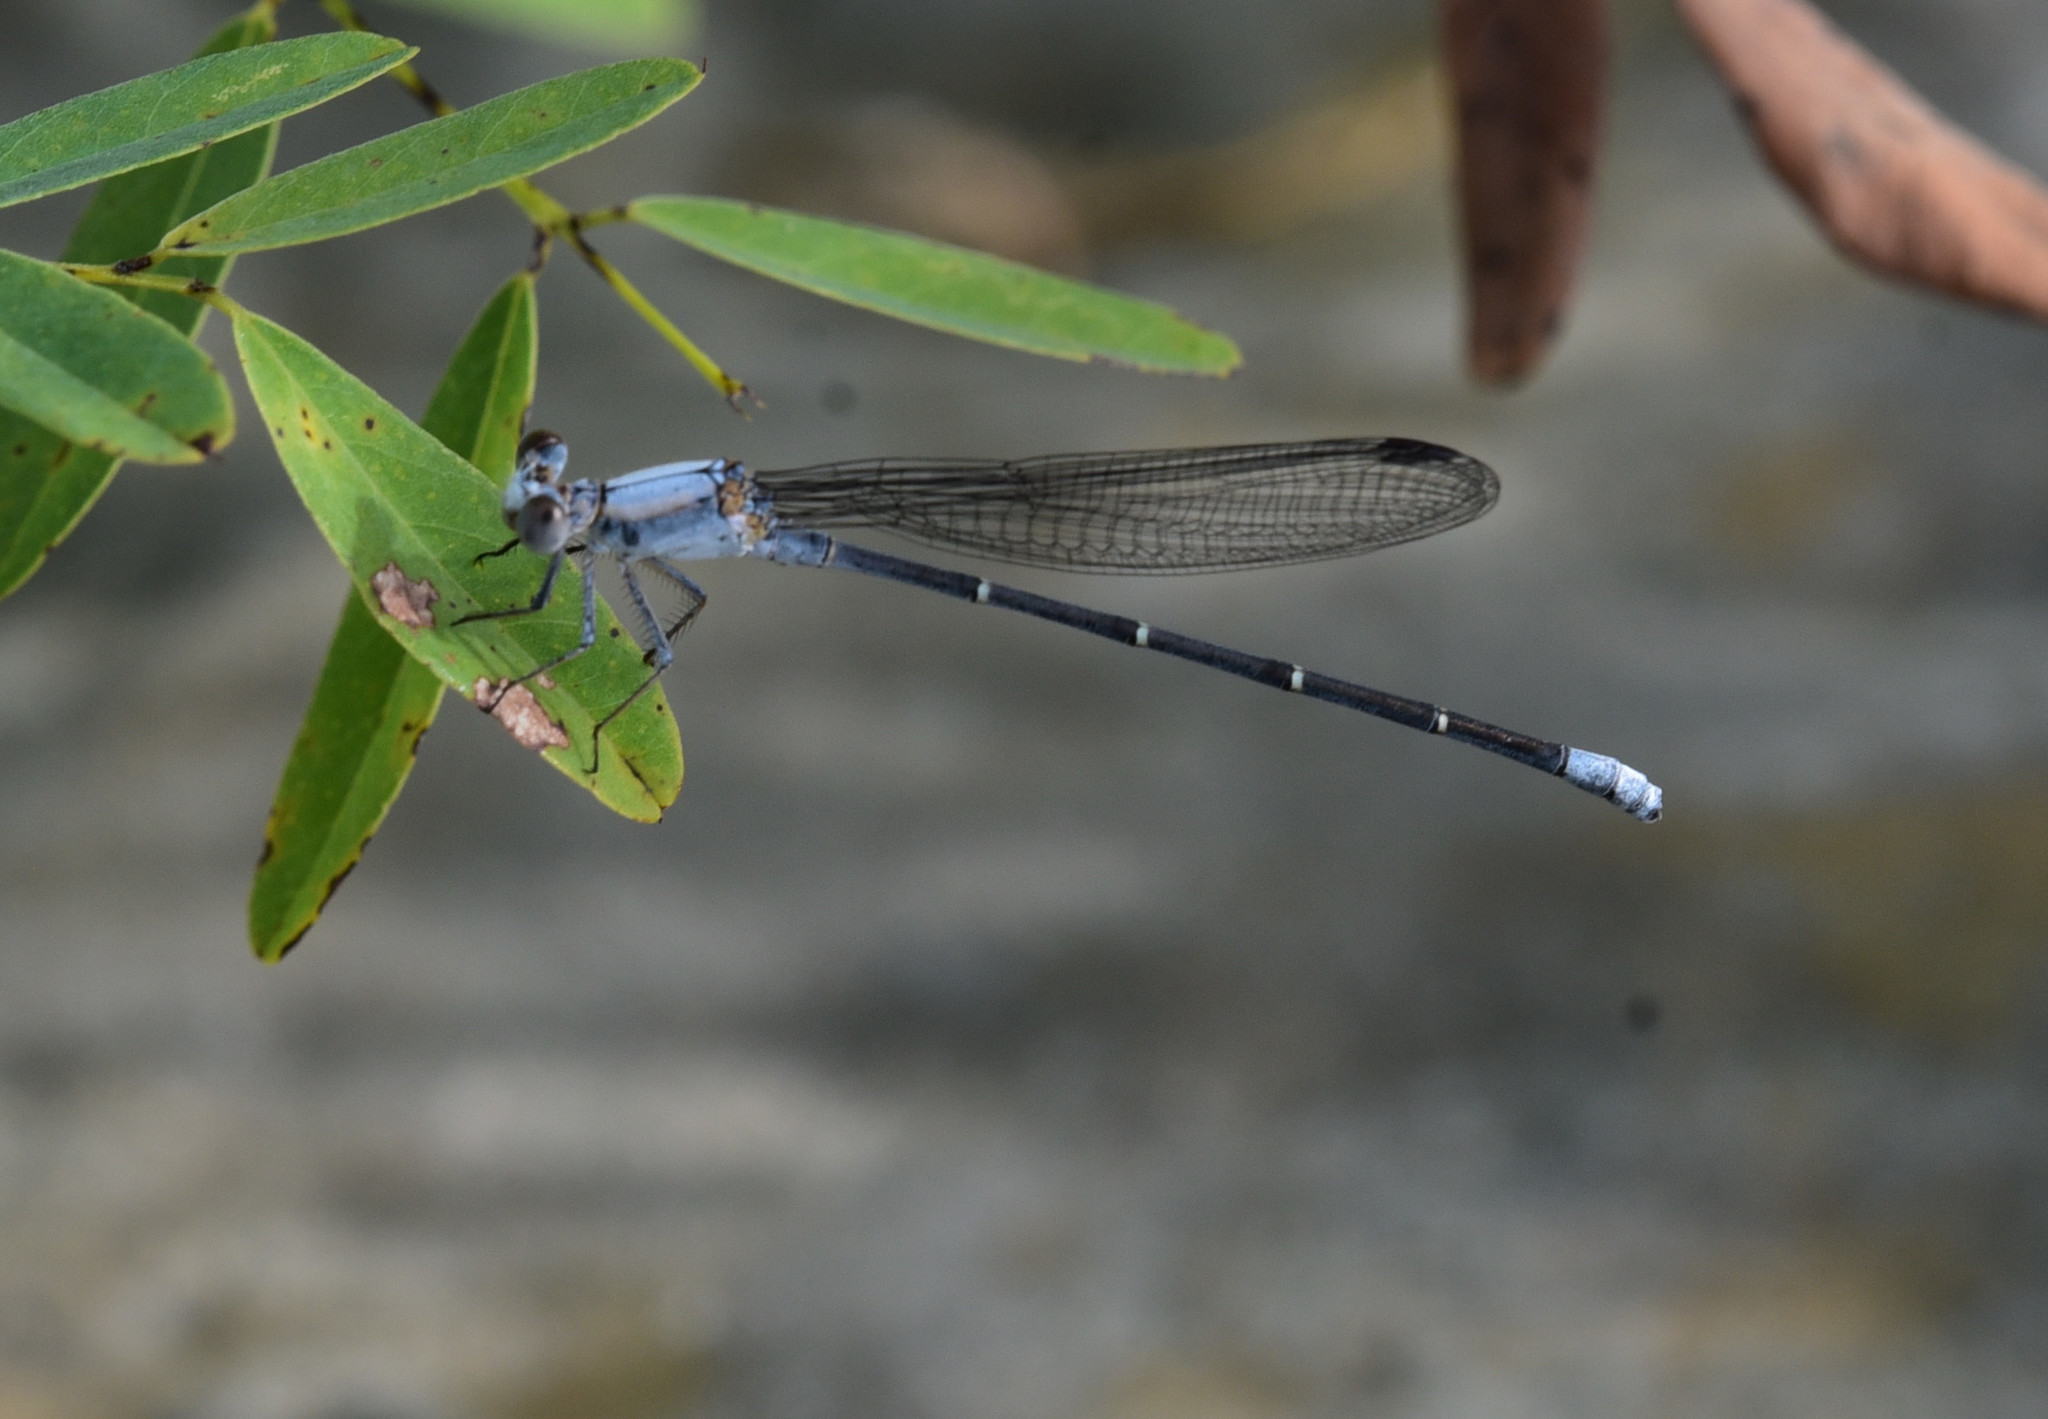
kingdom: Animalia
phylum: Arthropoda
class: Insecta
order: Odonata
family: Coenagrionidae
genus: Argia
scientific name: Argia moesta
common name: Powdered dancer
